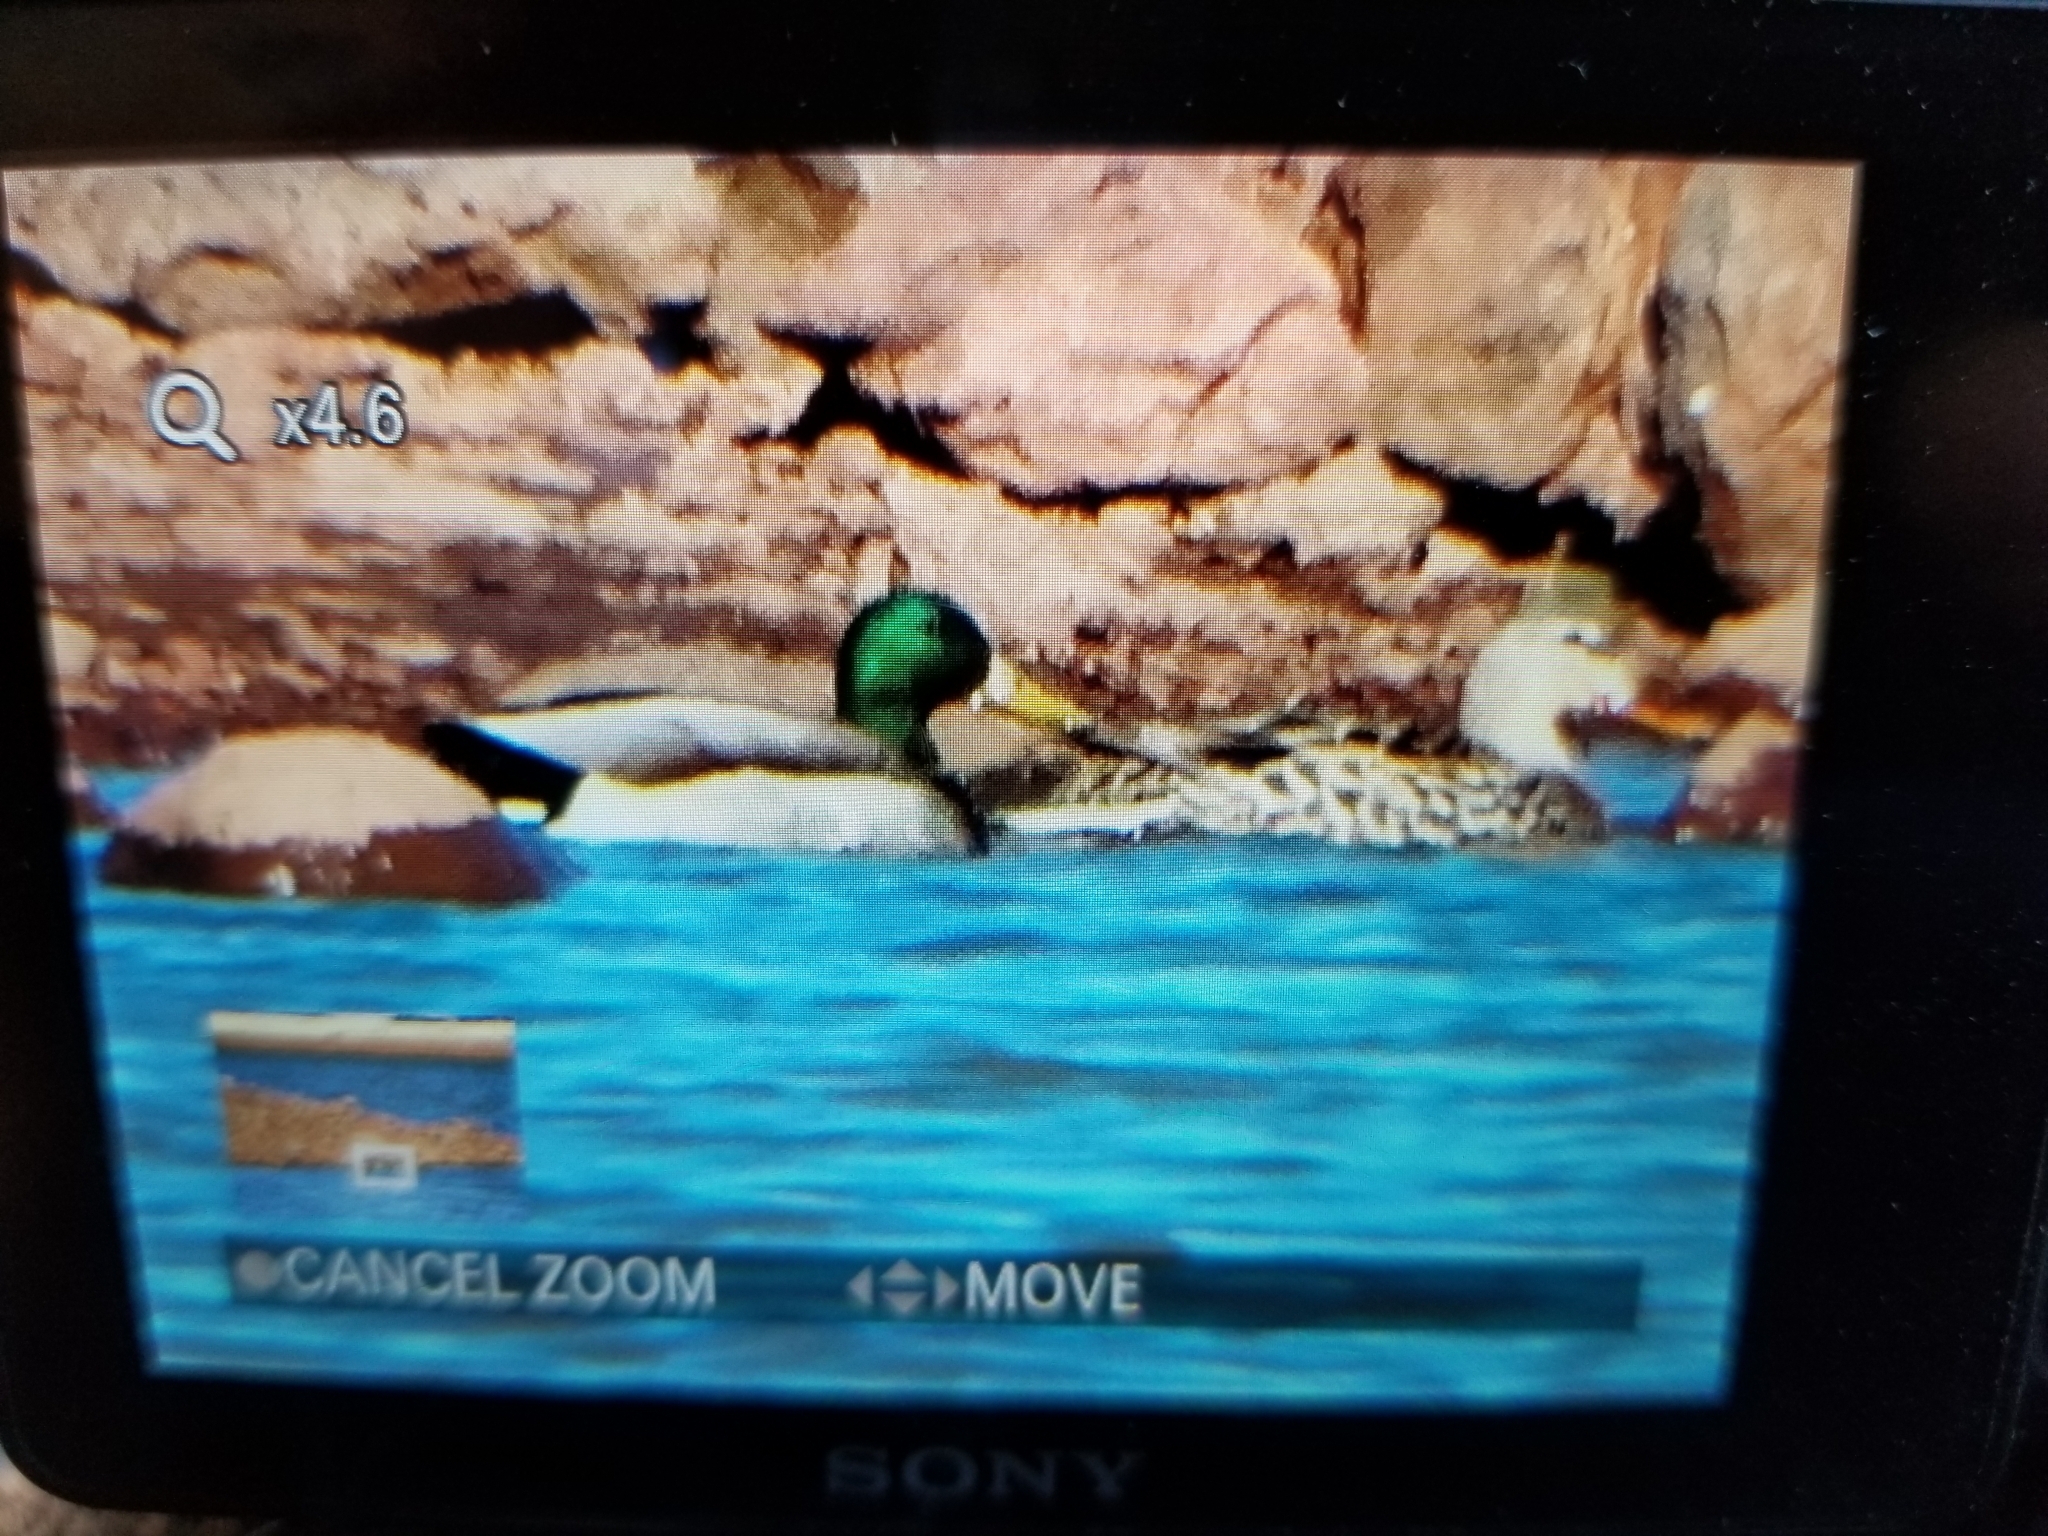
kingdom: Animalia
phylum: Chordata
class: Aves
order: Anseriformes
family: Anatidae
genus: Anas
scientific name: Anas platyrhynchos
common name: Mallard
